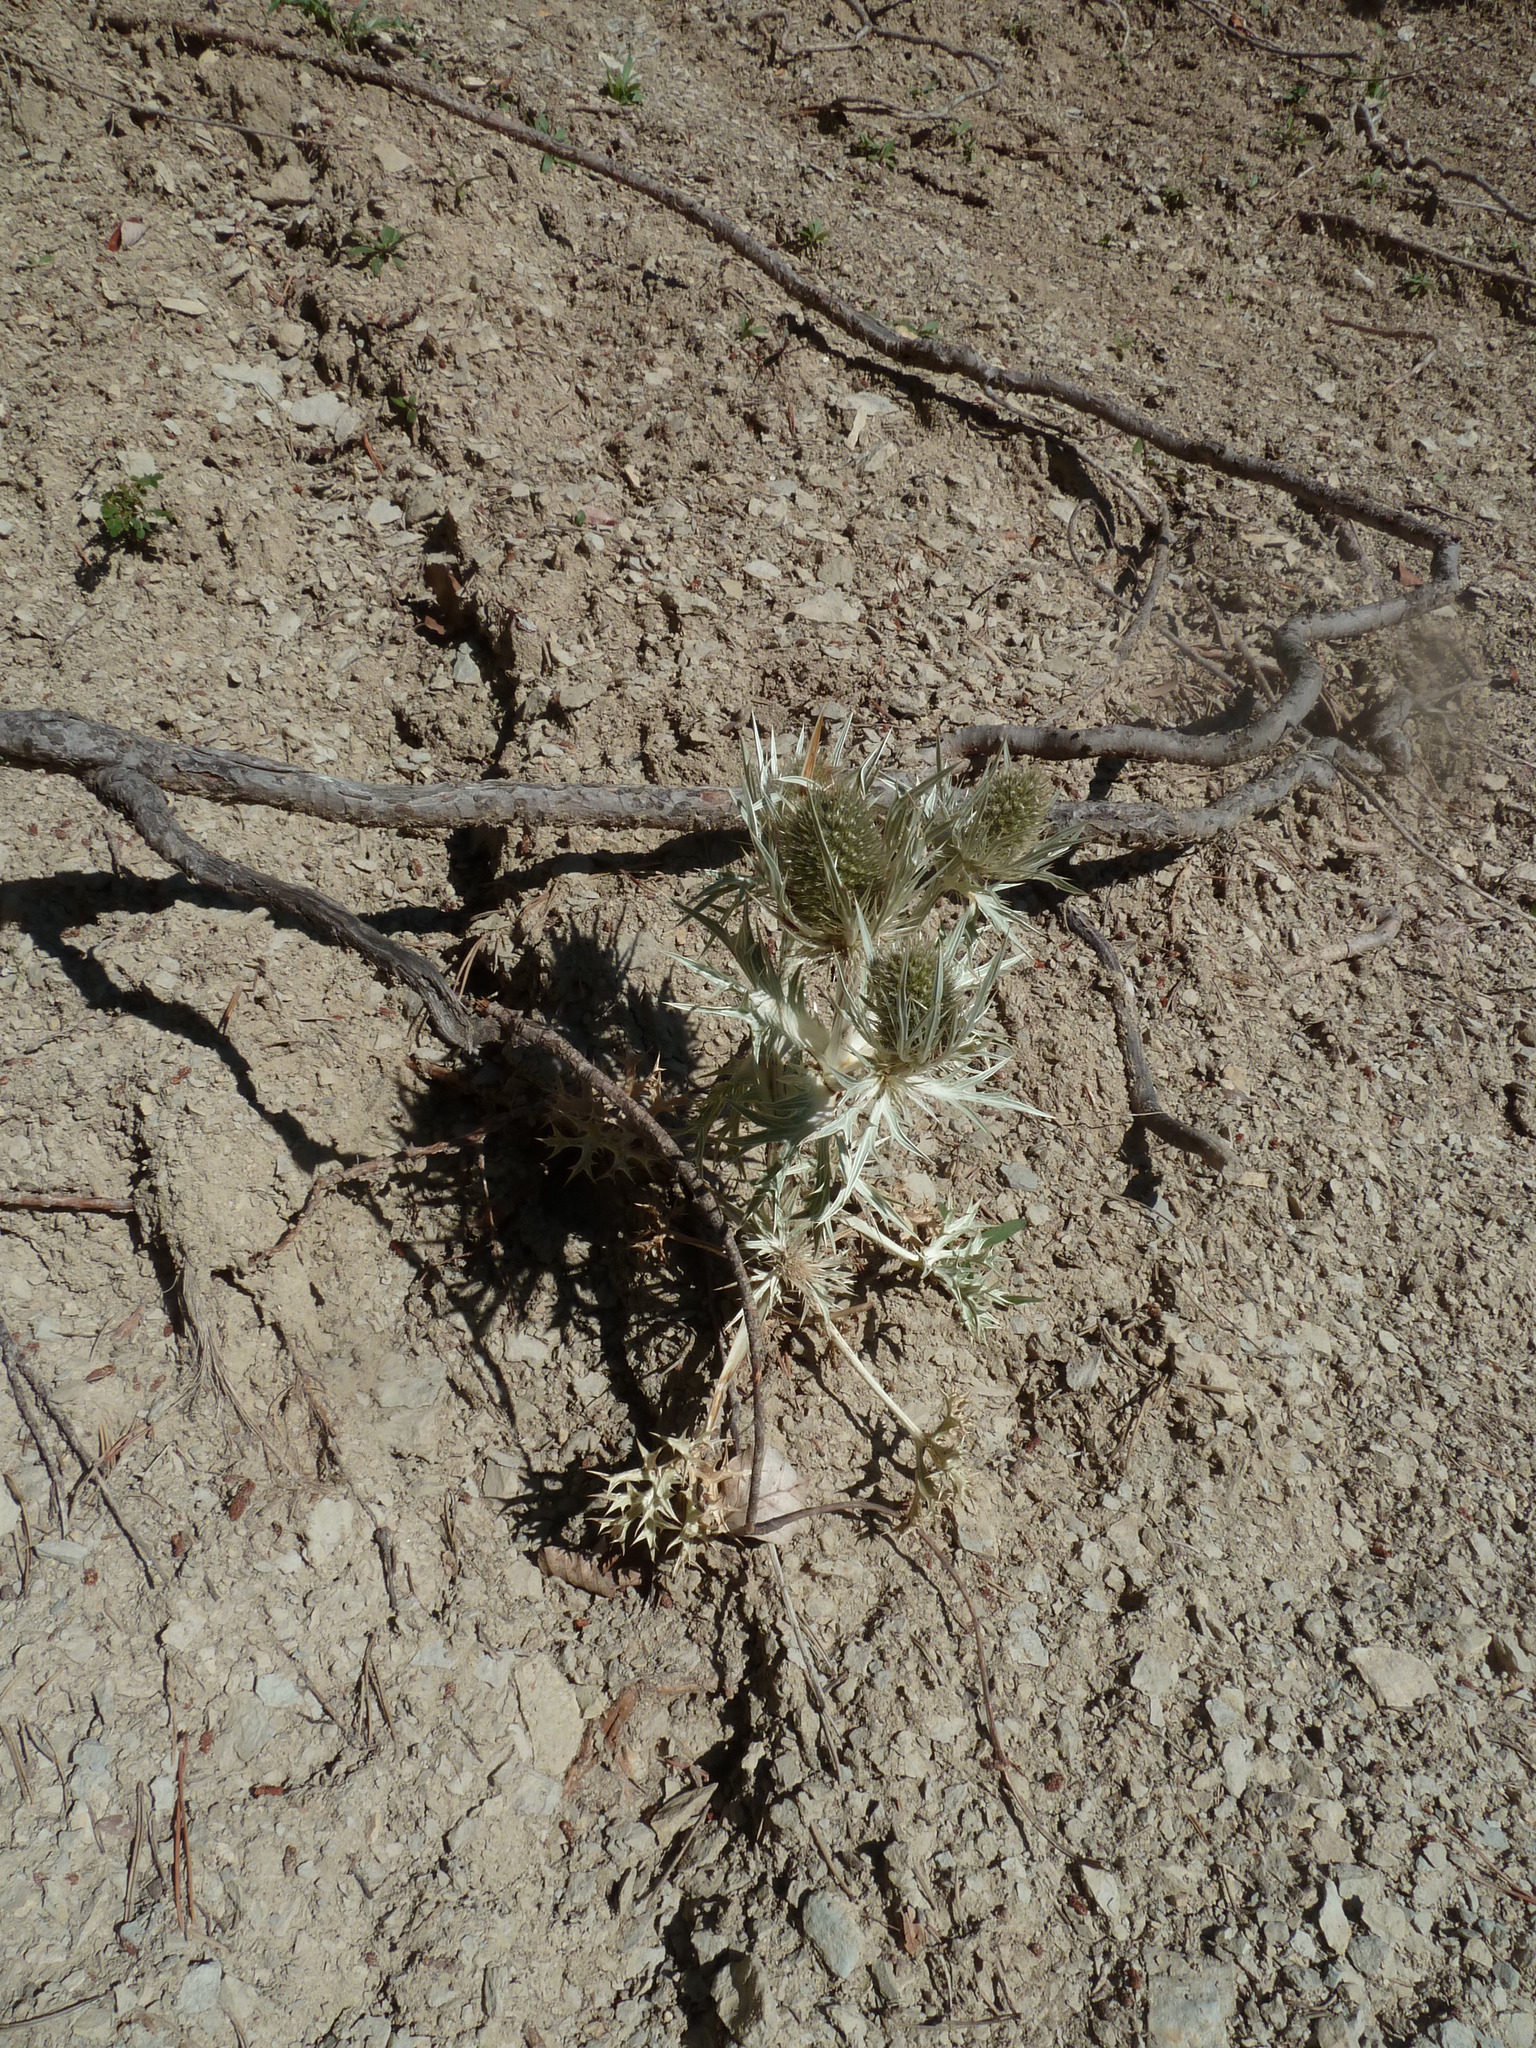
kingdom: Plantae
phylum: Tracheophyta
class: Magnoliopsida
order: Apiales
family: Apiaceae
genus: Eryngium
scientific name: Eryngium spinalba
